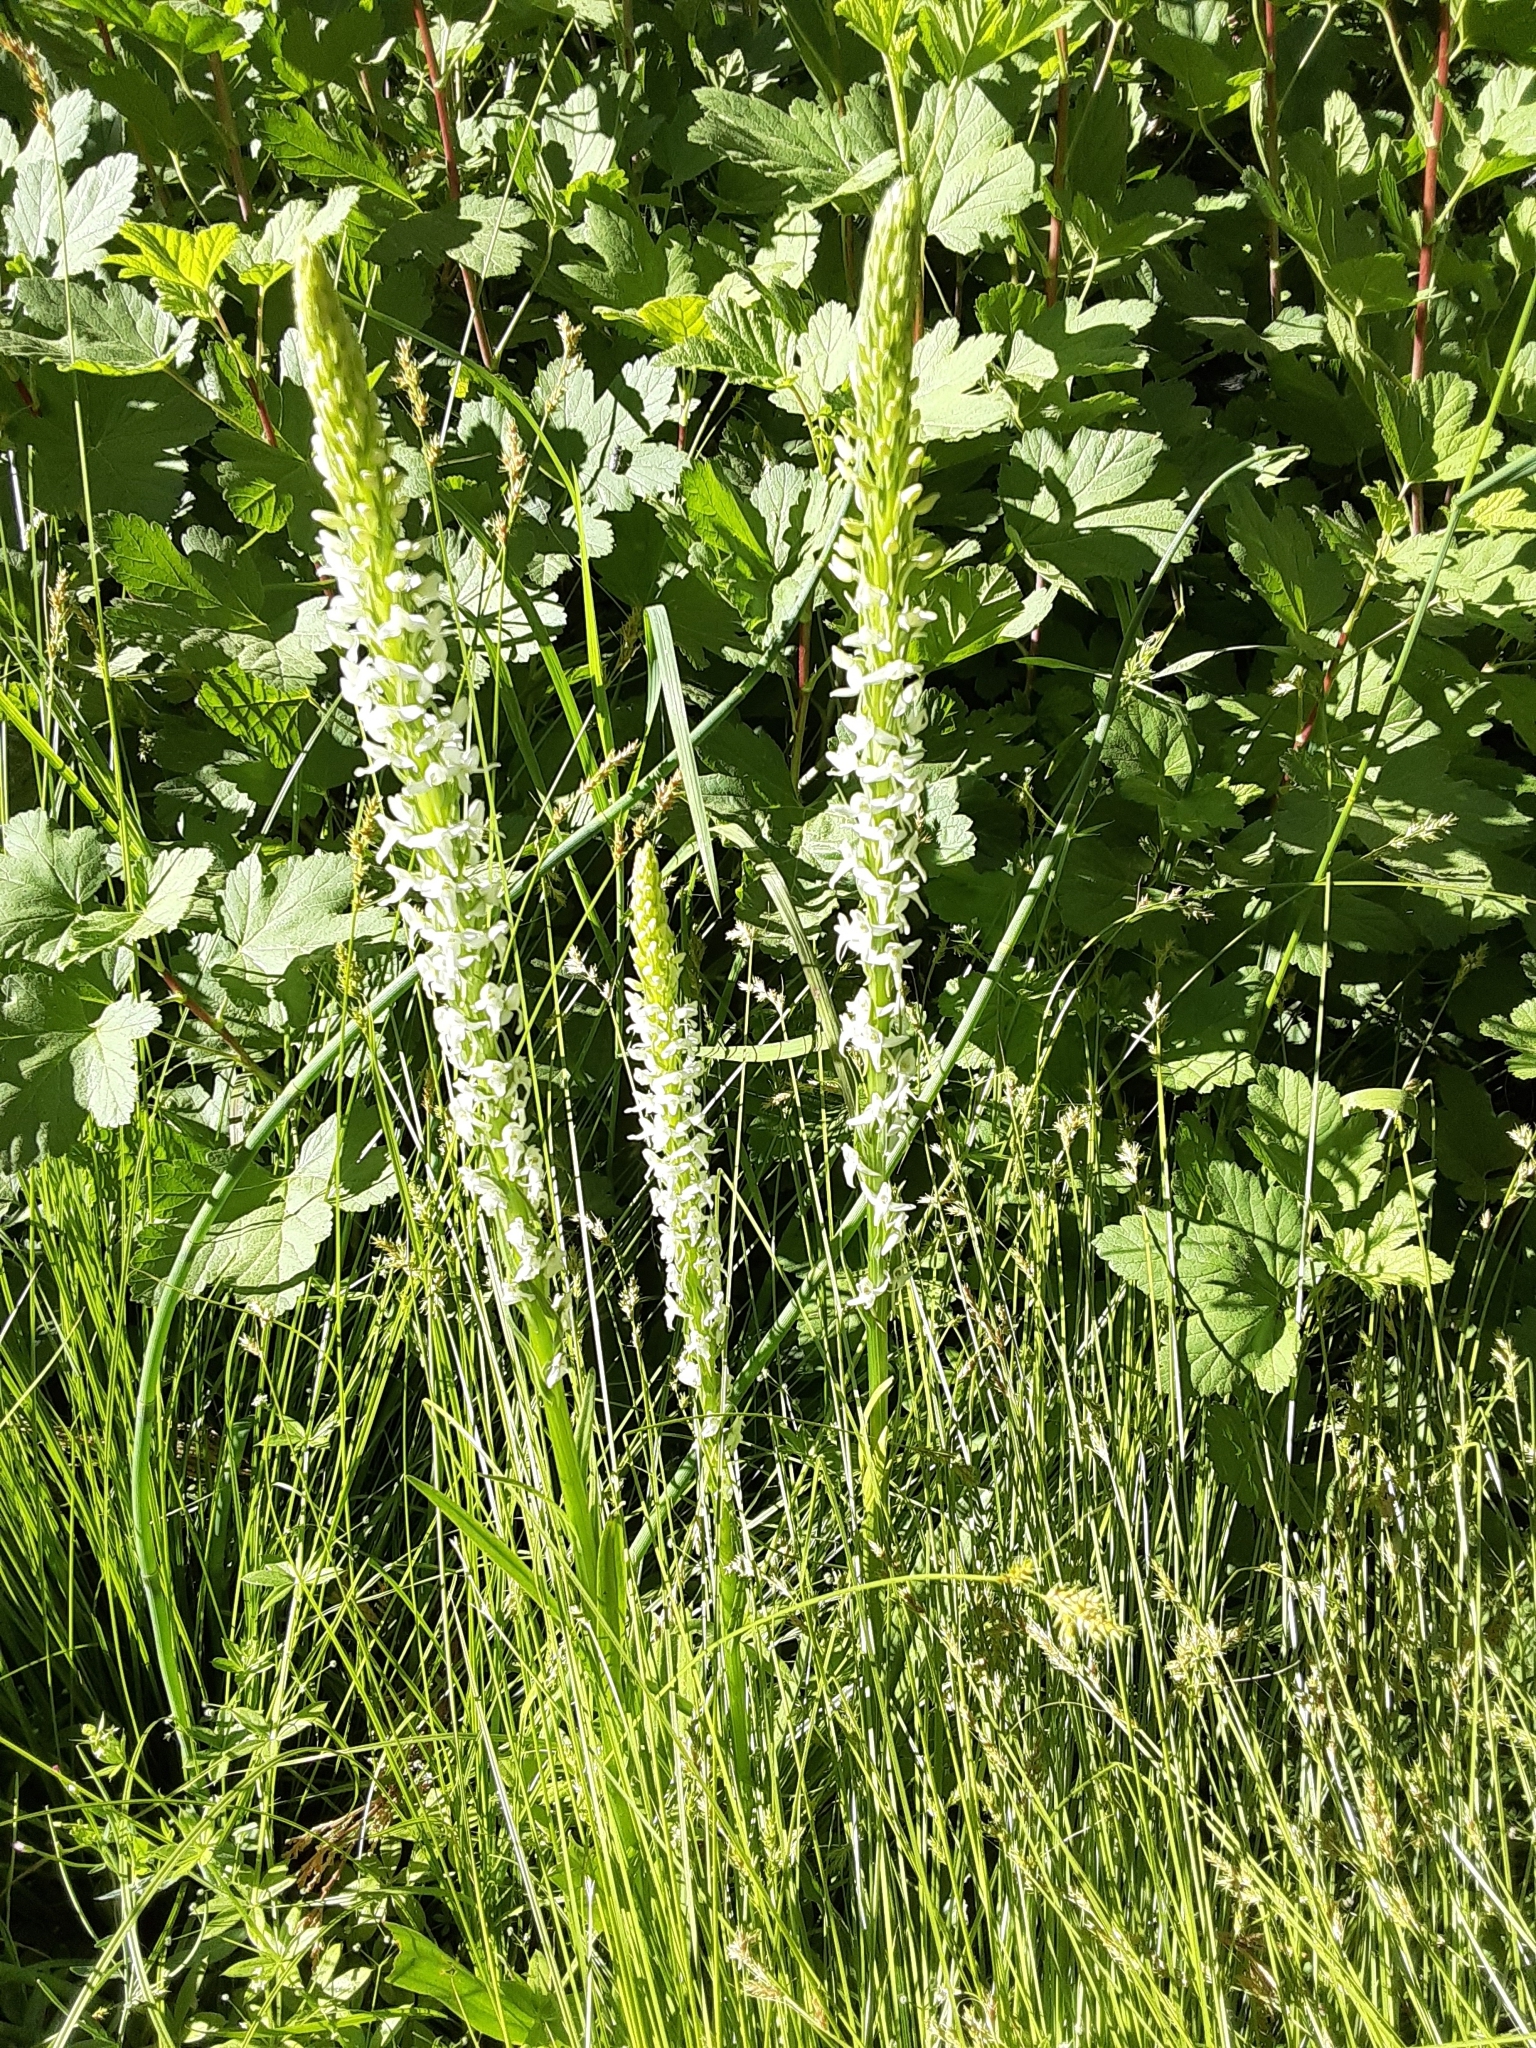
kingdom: Plantae
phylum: Tracheophyta
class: Liliopsida
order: Asparagales
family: Orchidaceae
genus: Platanthera
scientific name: Platanthera dilatata
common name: Bog candles
